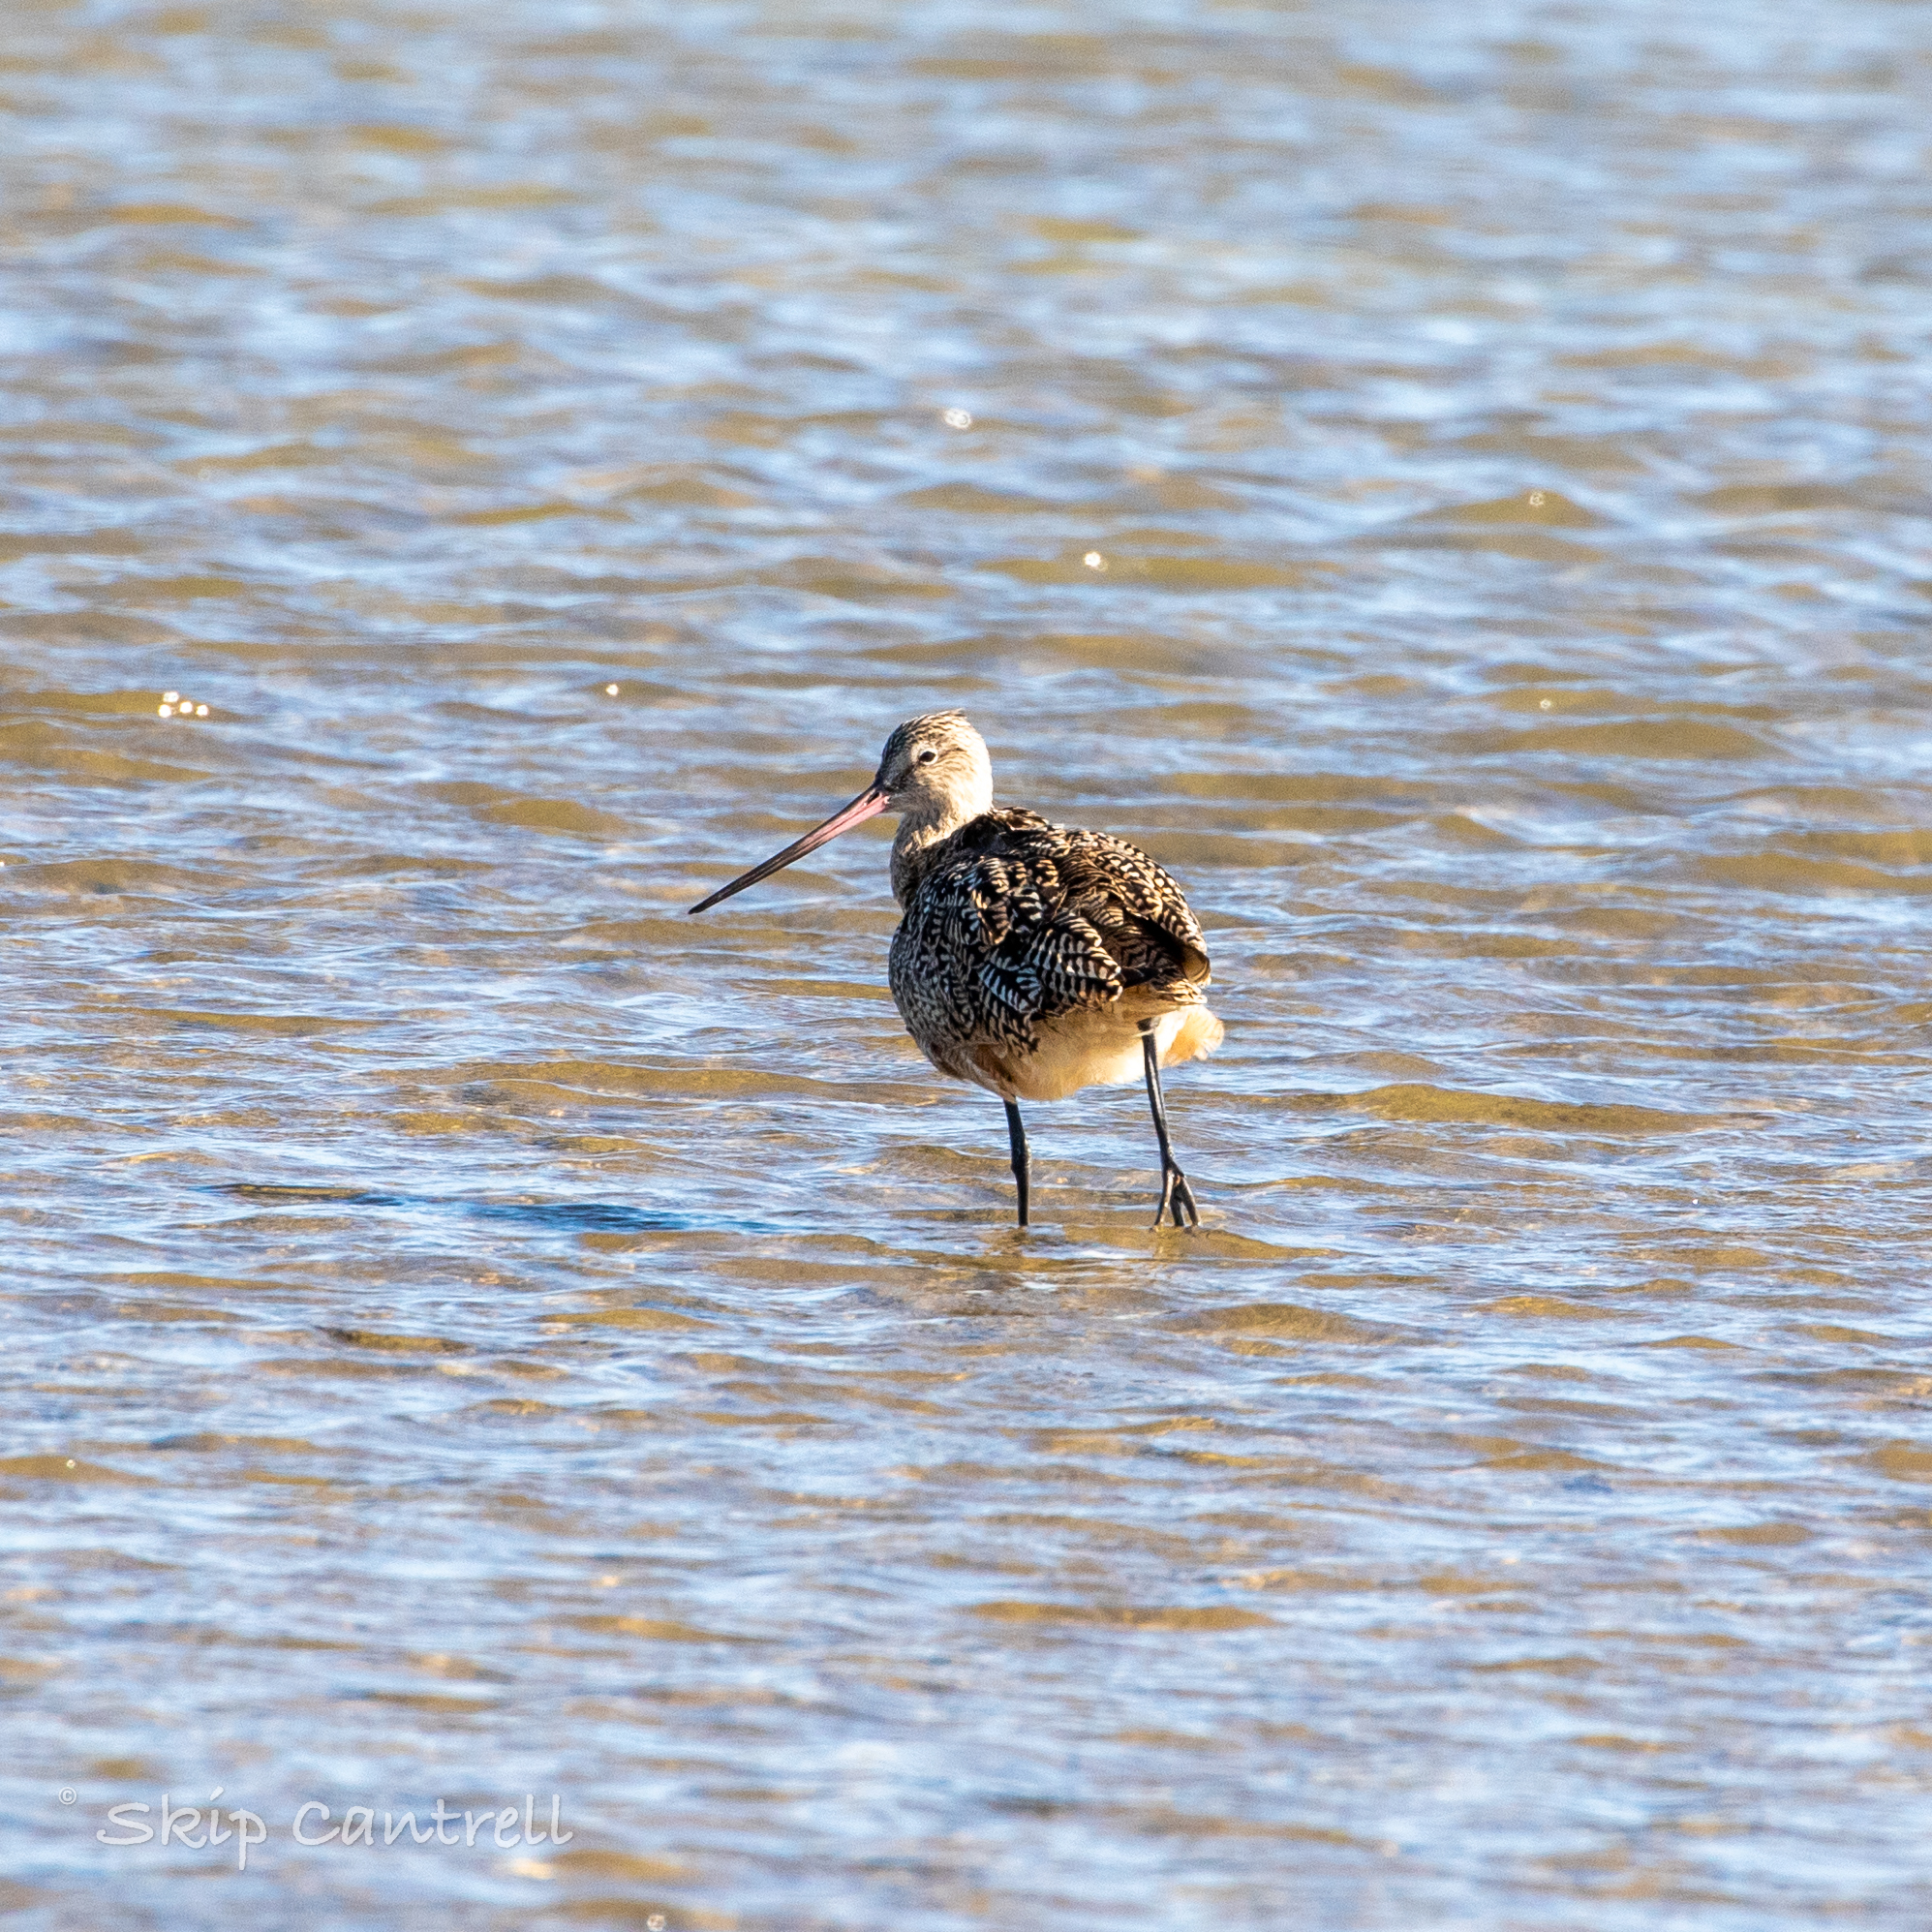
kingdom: Animalia
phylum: Chordata
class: Aves
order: Charadriiformes
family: Scolopacidae
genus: Limosa
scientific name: Limosa fedoa
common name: Marbled godwit
